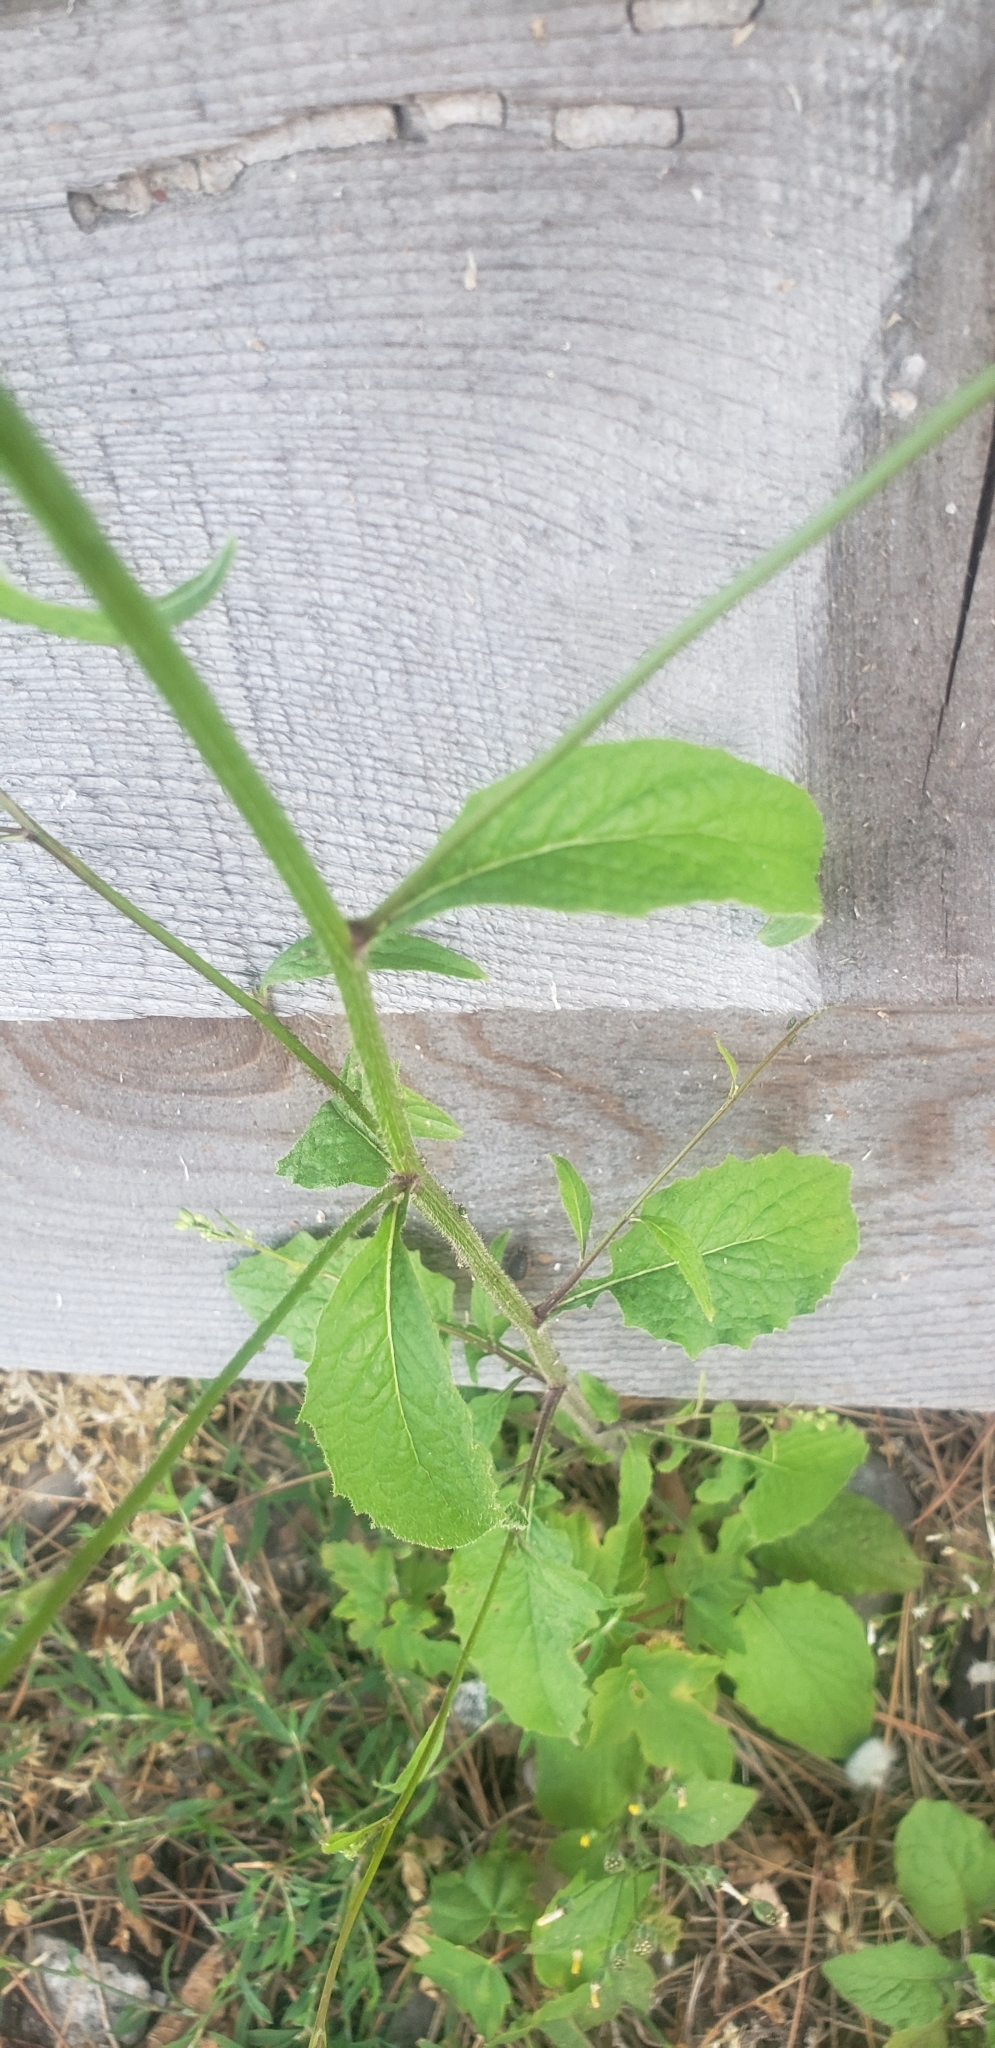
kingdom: Plantae
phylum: Tracheophyta
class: Magnoliopsida
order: Asterales
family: Asteraceae
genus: Lapsana
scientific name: Lapsana communis
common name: Nipplewort
